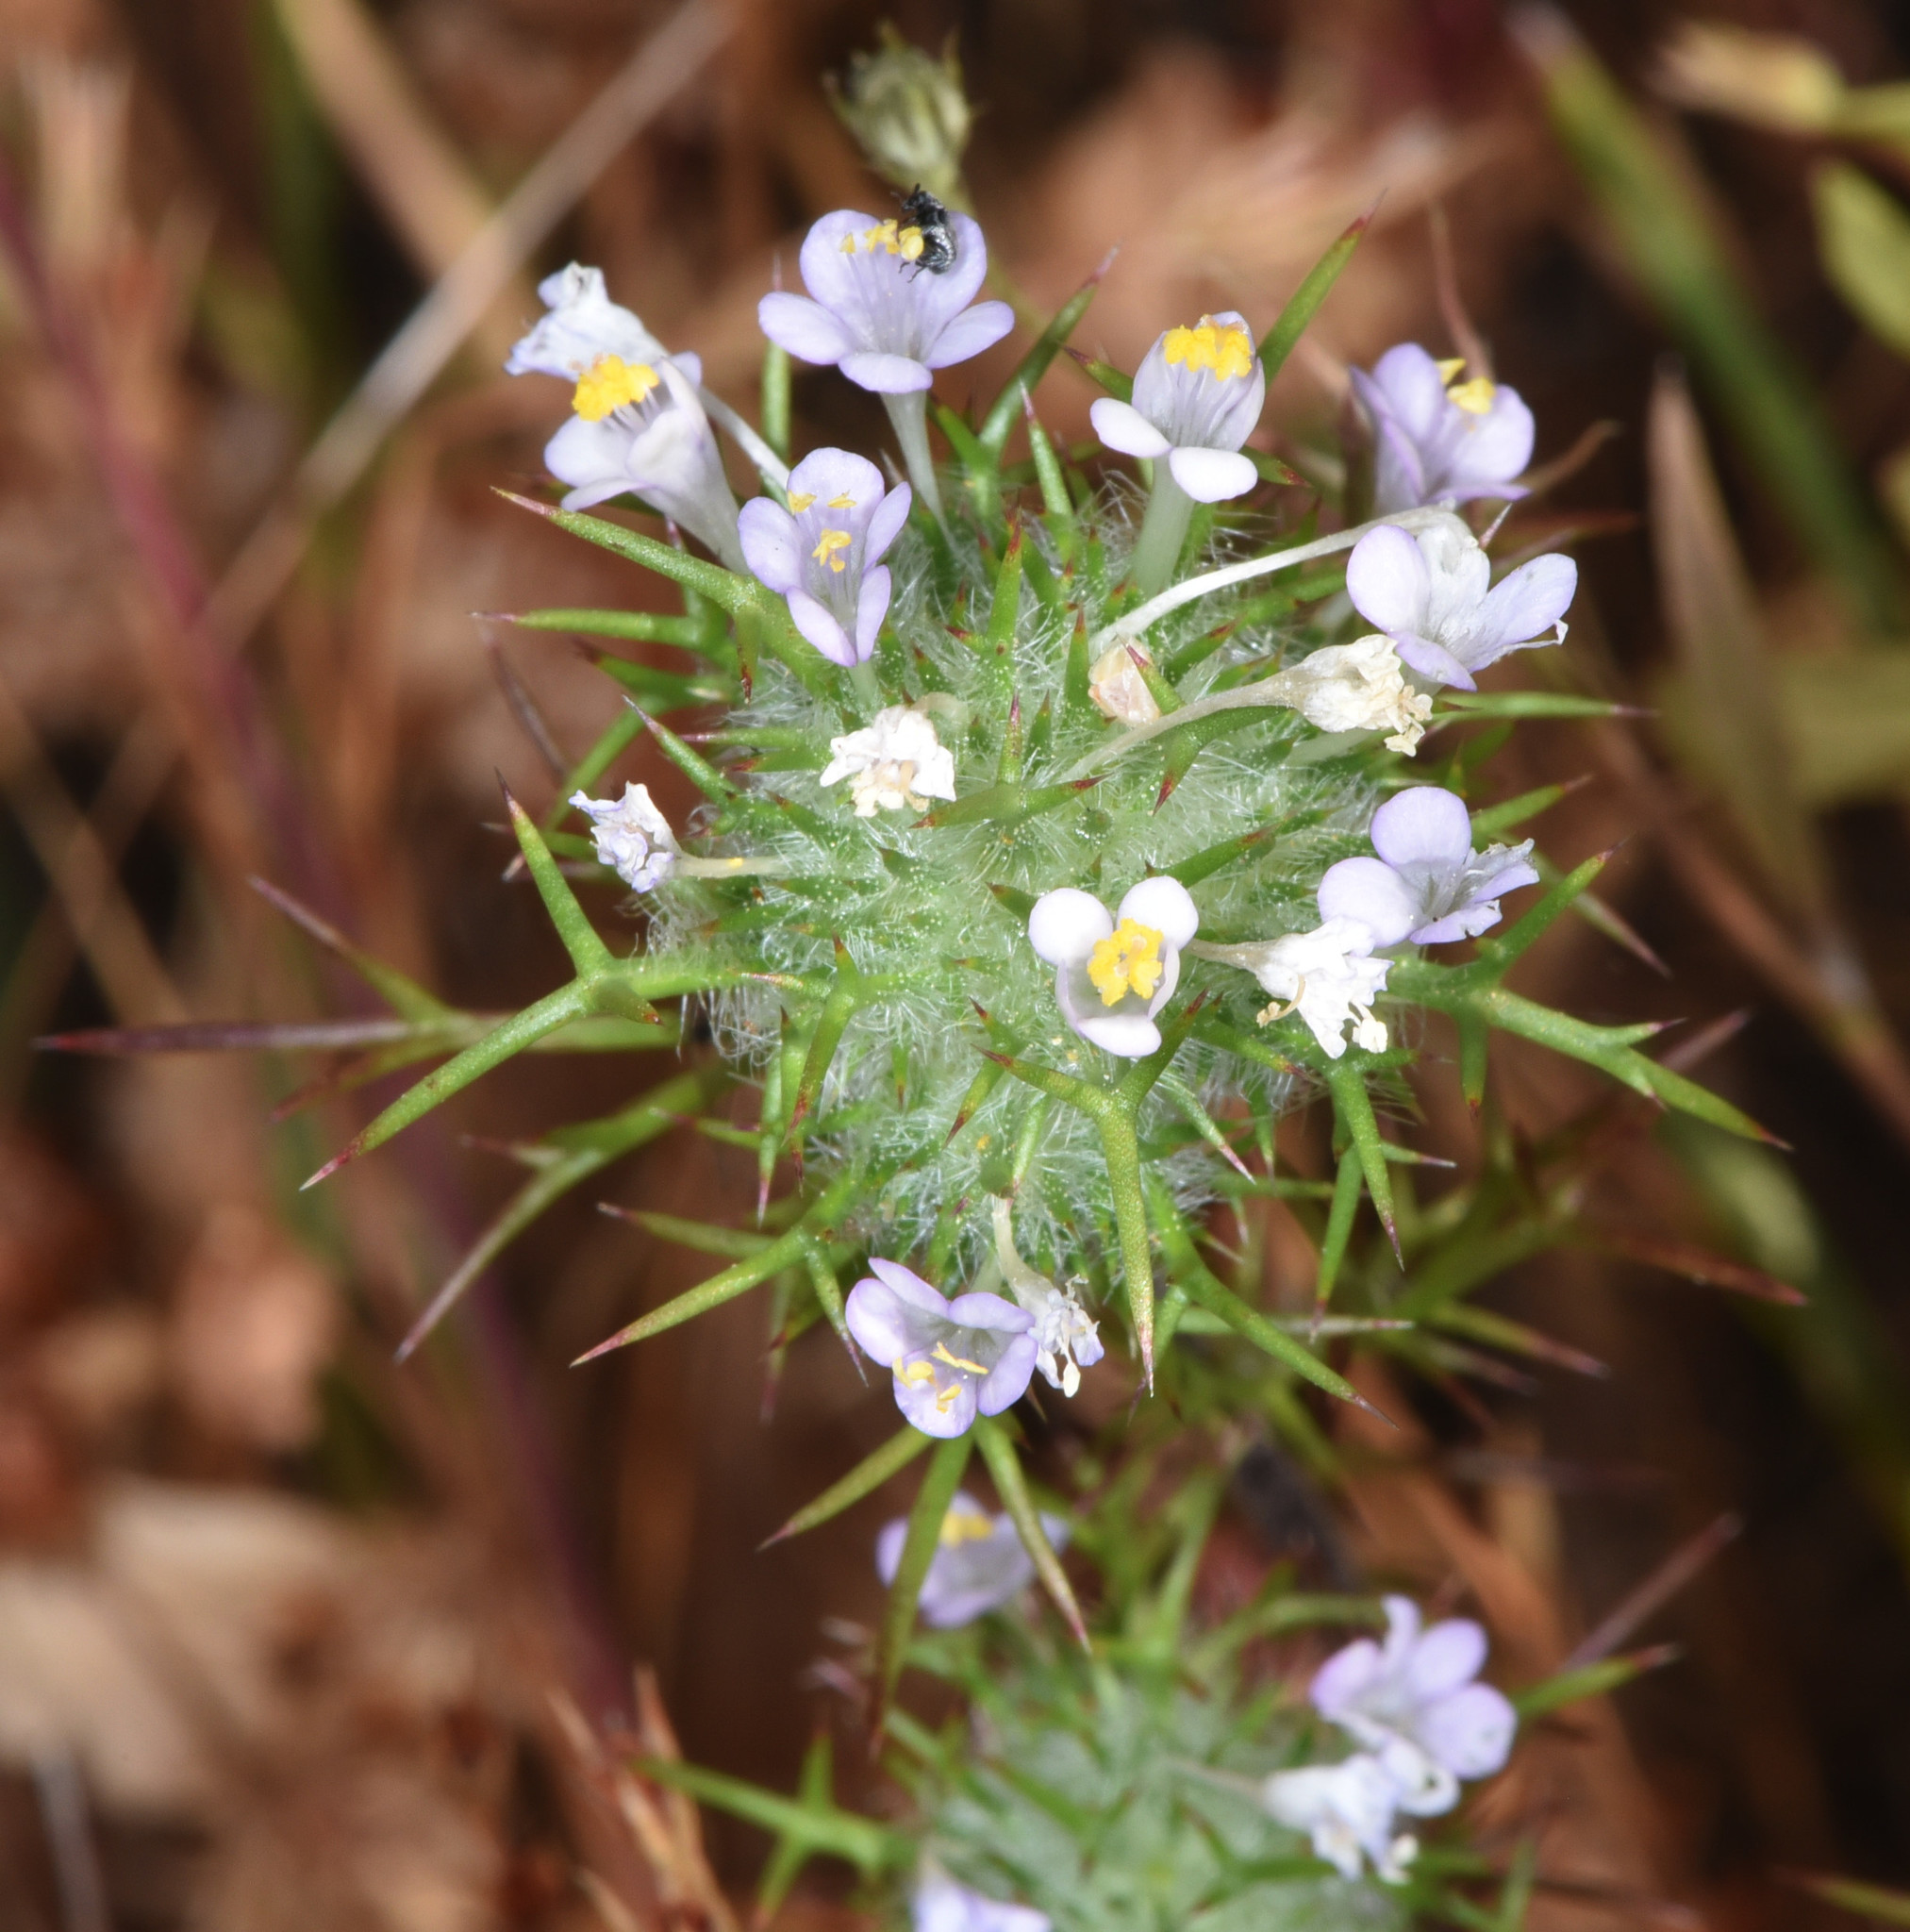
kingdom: Plantae
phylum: Tracheophyta
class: Magnoliopsida
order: Ericales
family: Polemoniaceae
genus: Navarretia
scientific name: Navarretia intertexta
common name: Needle-leaved navarretia
